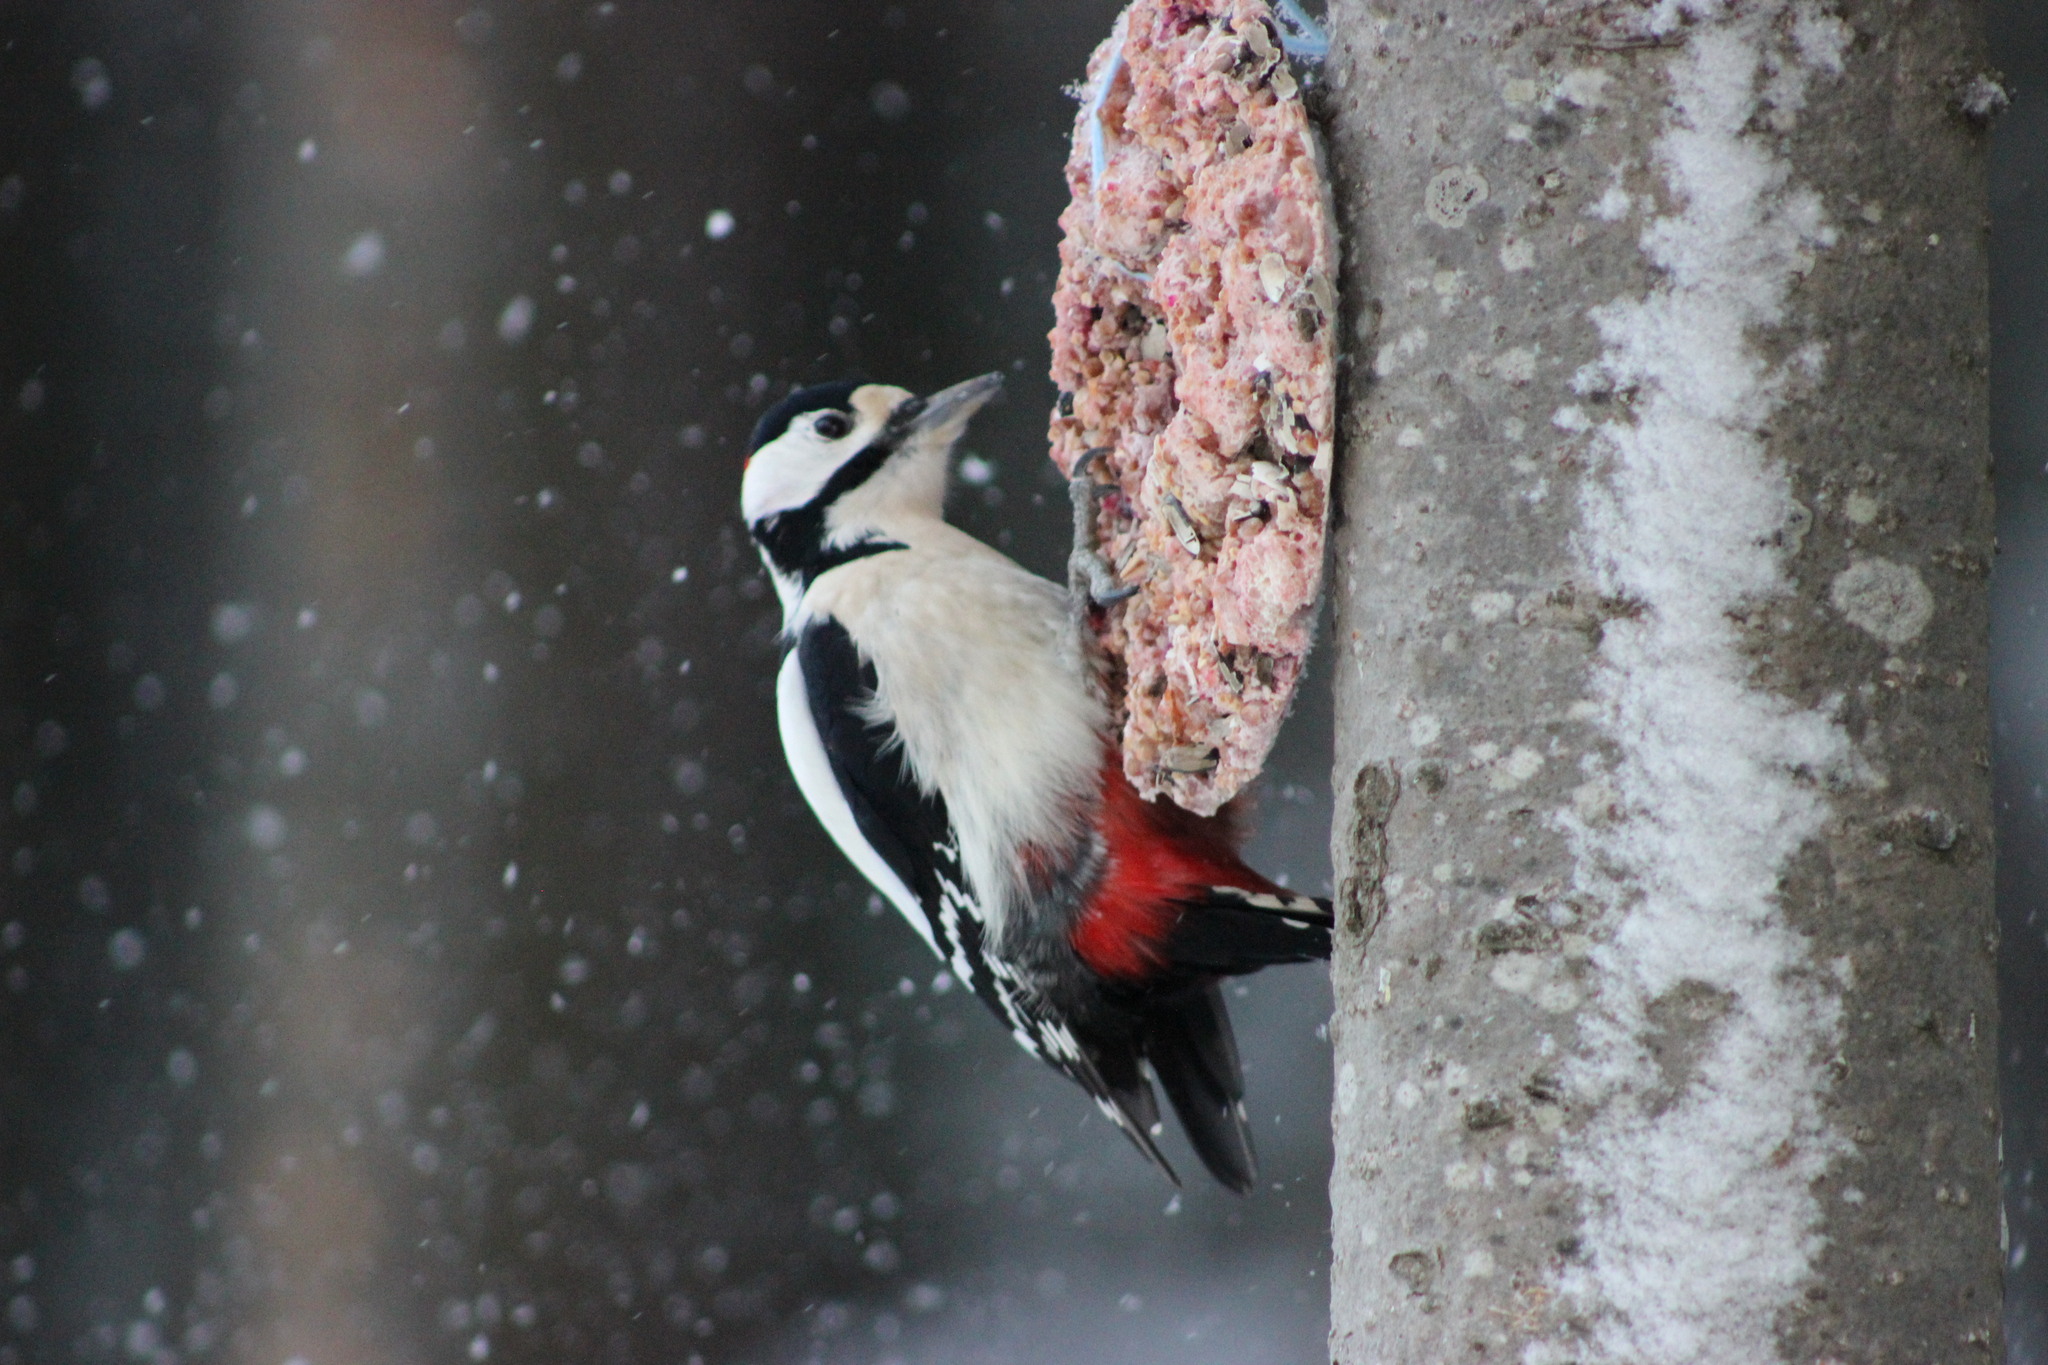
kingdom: Animalia
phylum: Chordata
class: Aves
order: Piciformes
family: Picidae
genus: Dendrocopos
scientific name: Dendrocopos major
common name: Great spotted woodpecker
